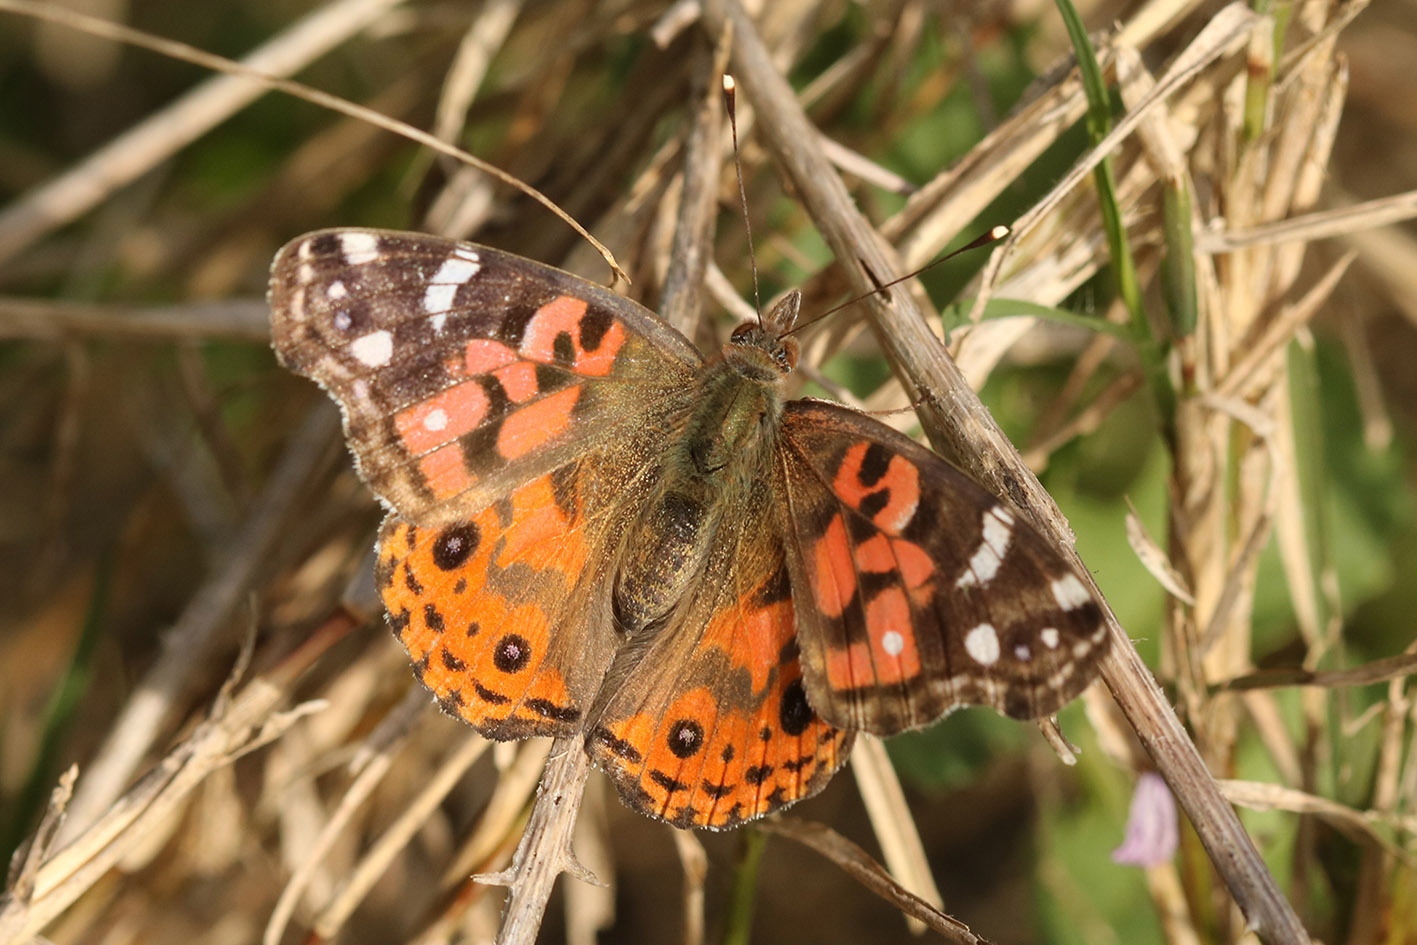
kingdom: Animalia
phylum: Arthropoda
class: Insecta
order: Lepidoptera
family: Nymphalidae
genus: Vanessa
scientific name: Vanessa braziliensis
